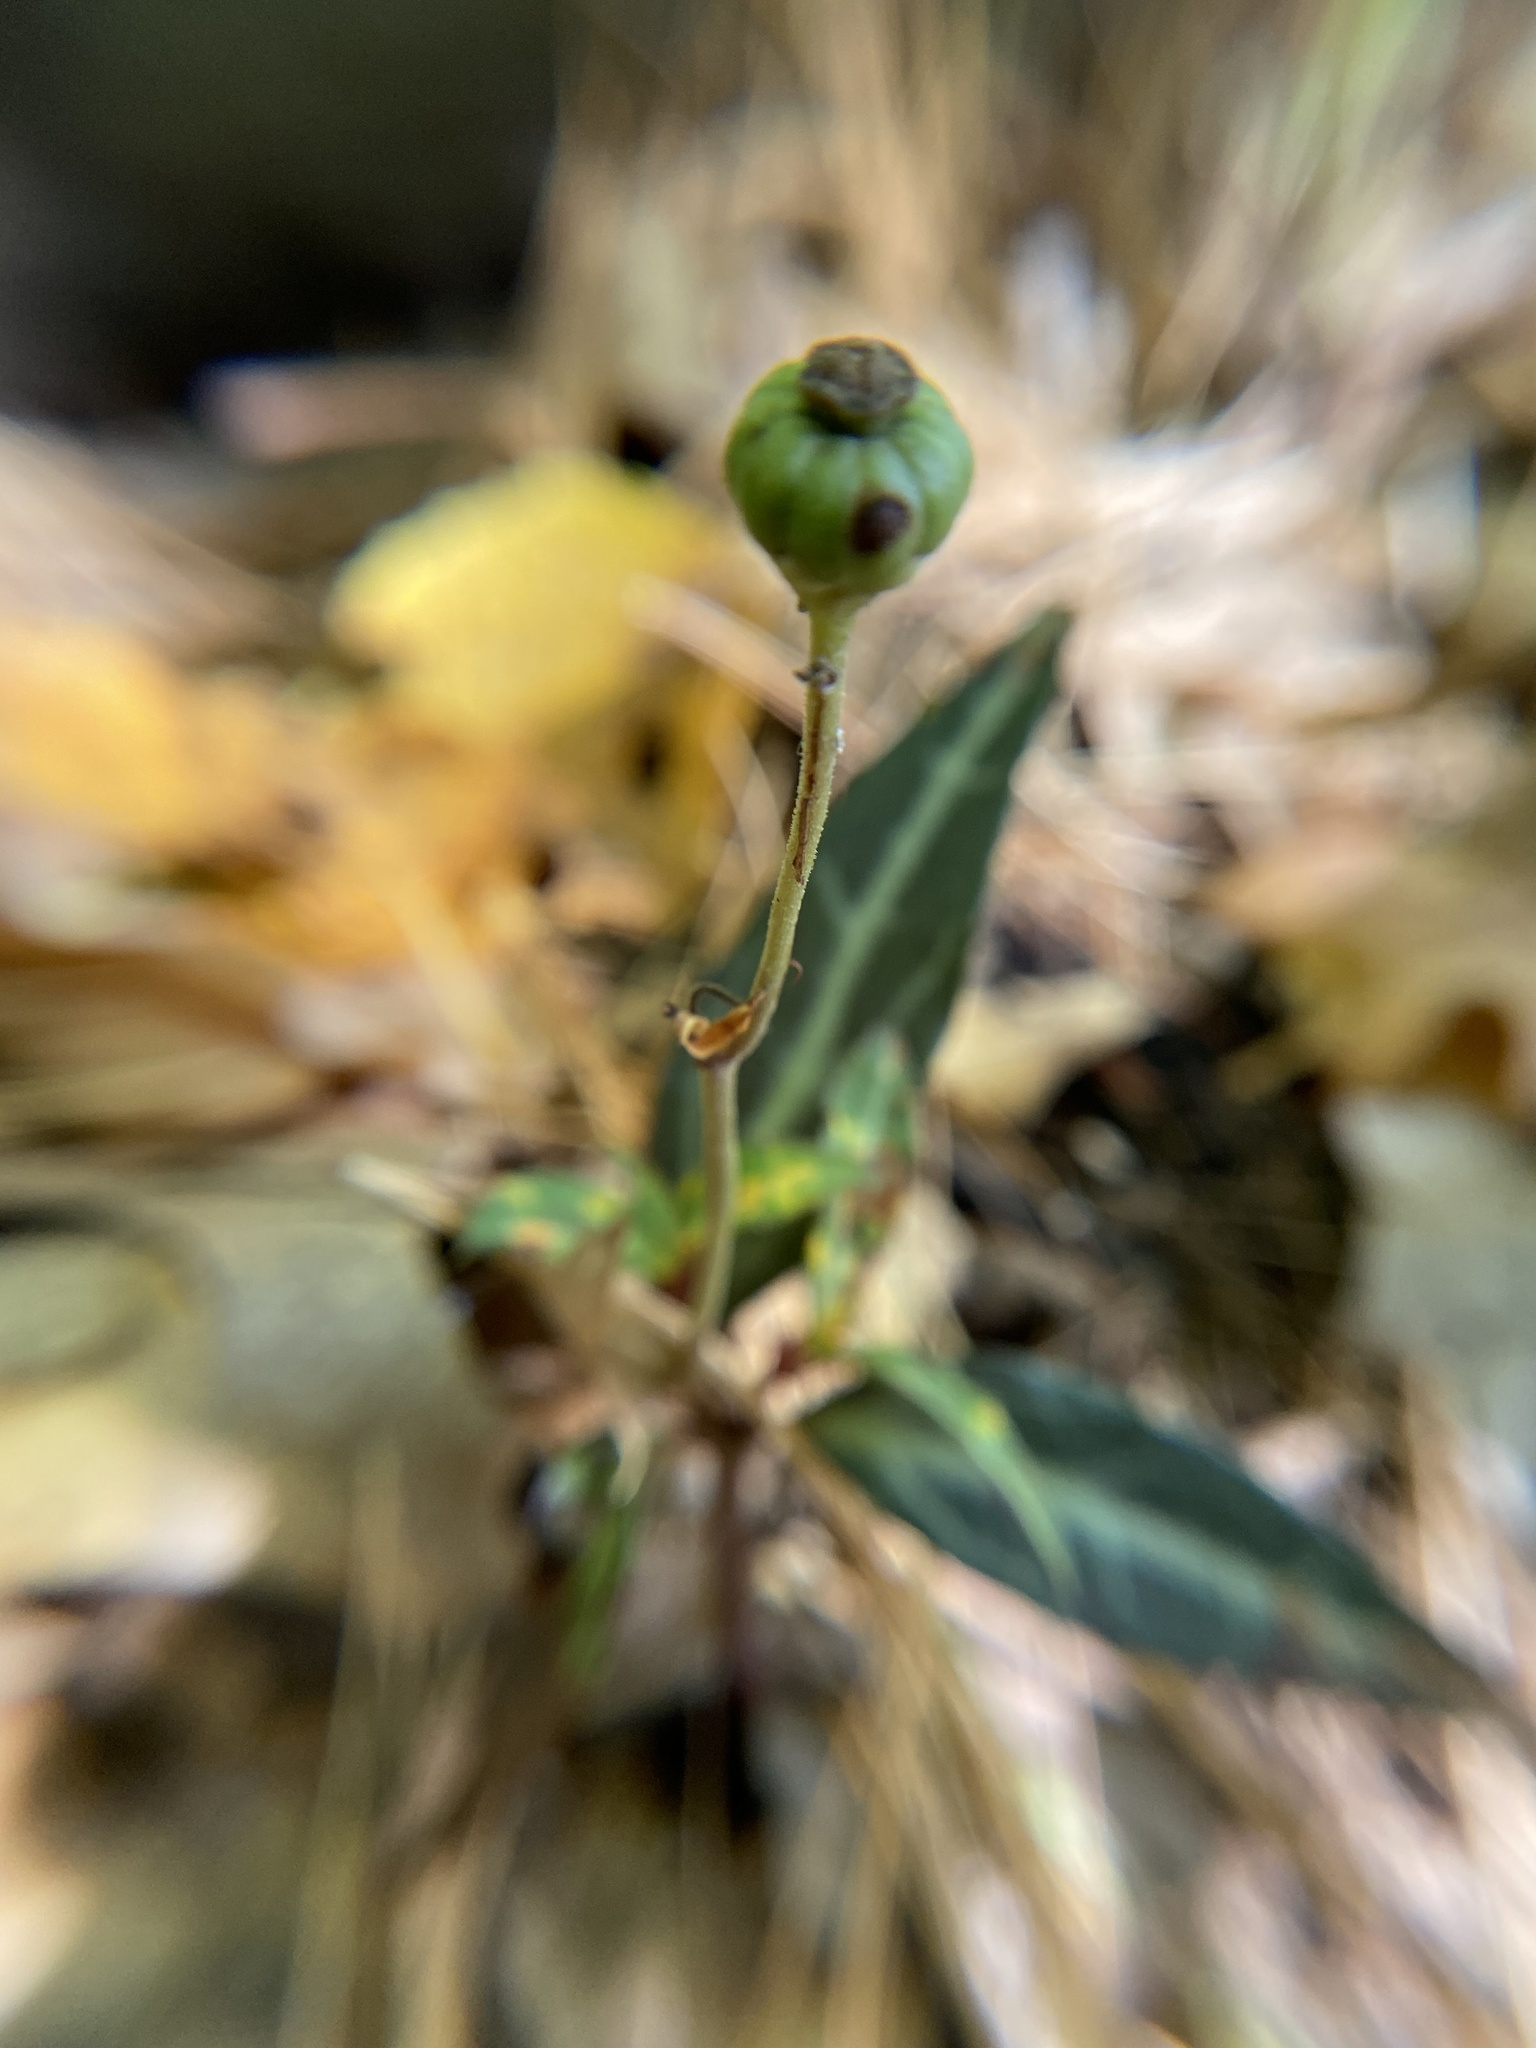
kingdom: Plantae
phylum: Tracheophyta
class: Magnoliopsida
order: Ericales
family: Ericaceae
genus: Chimaphila
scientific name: Chimaphila maculata
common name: Spotted pipsissewa
